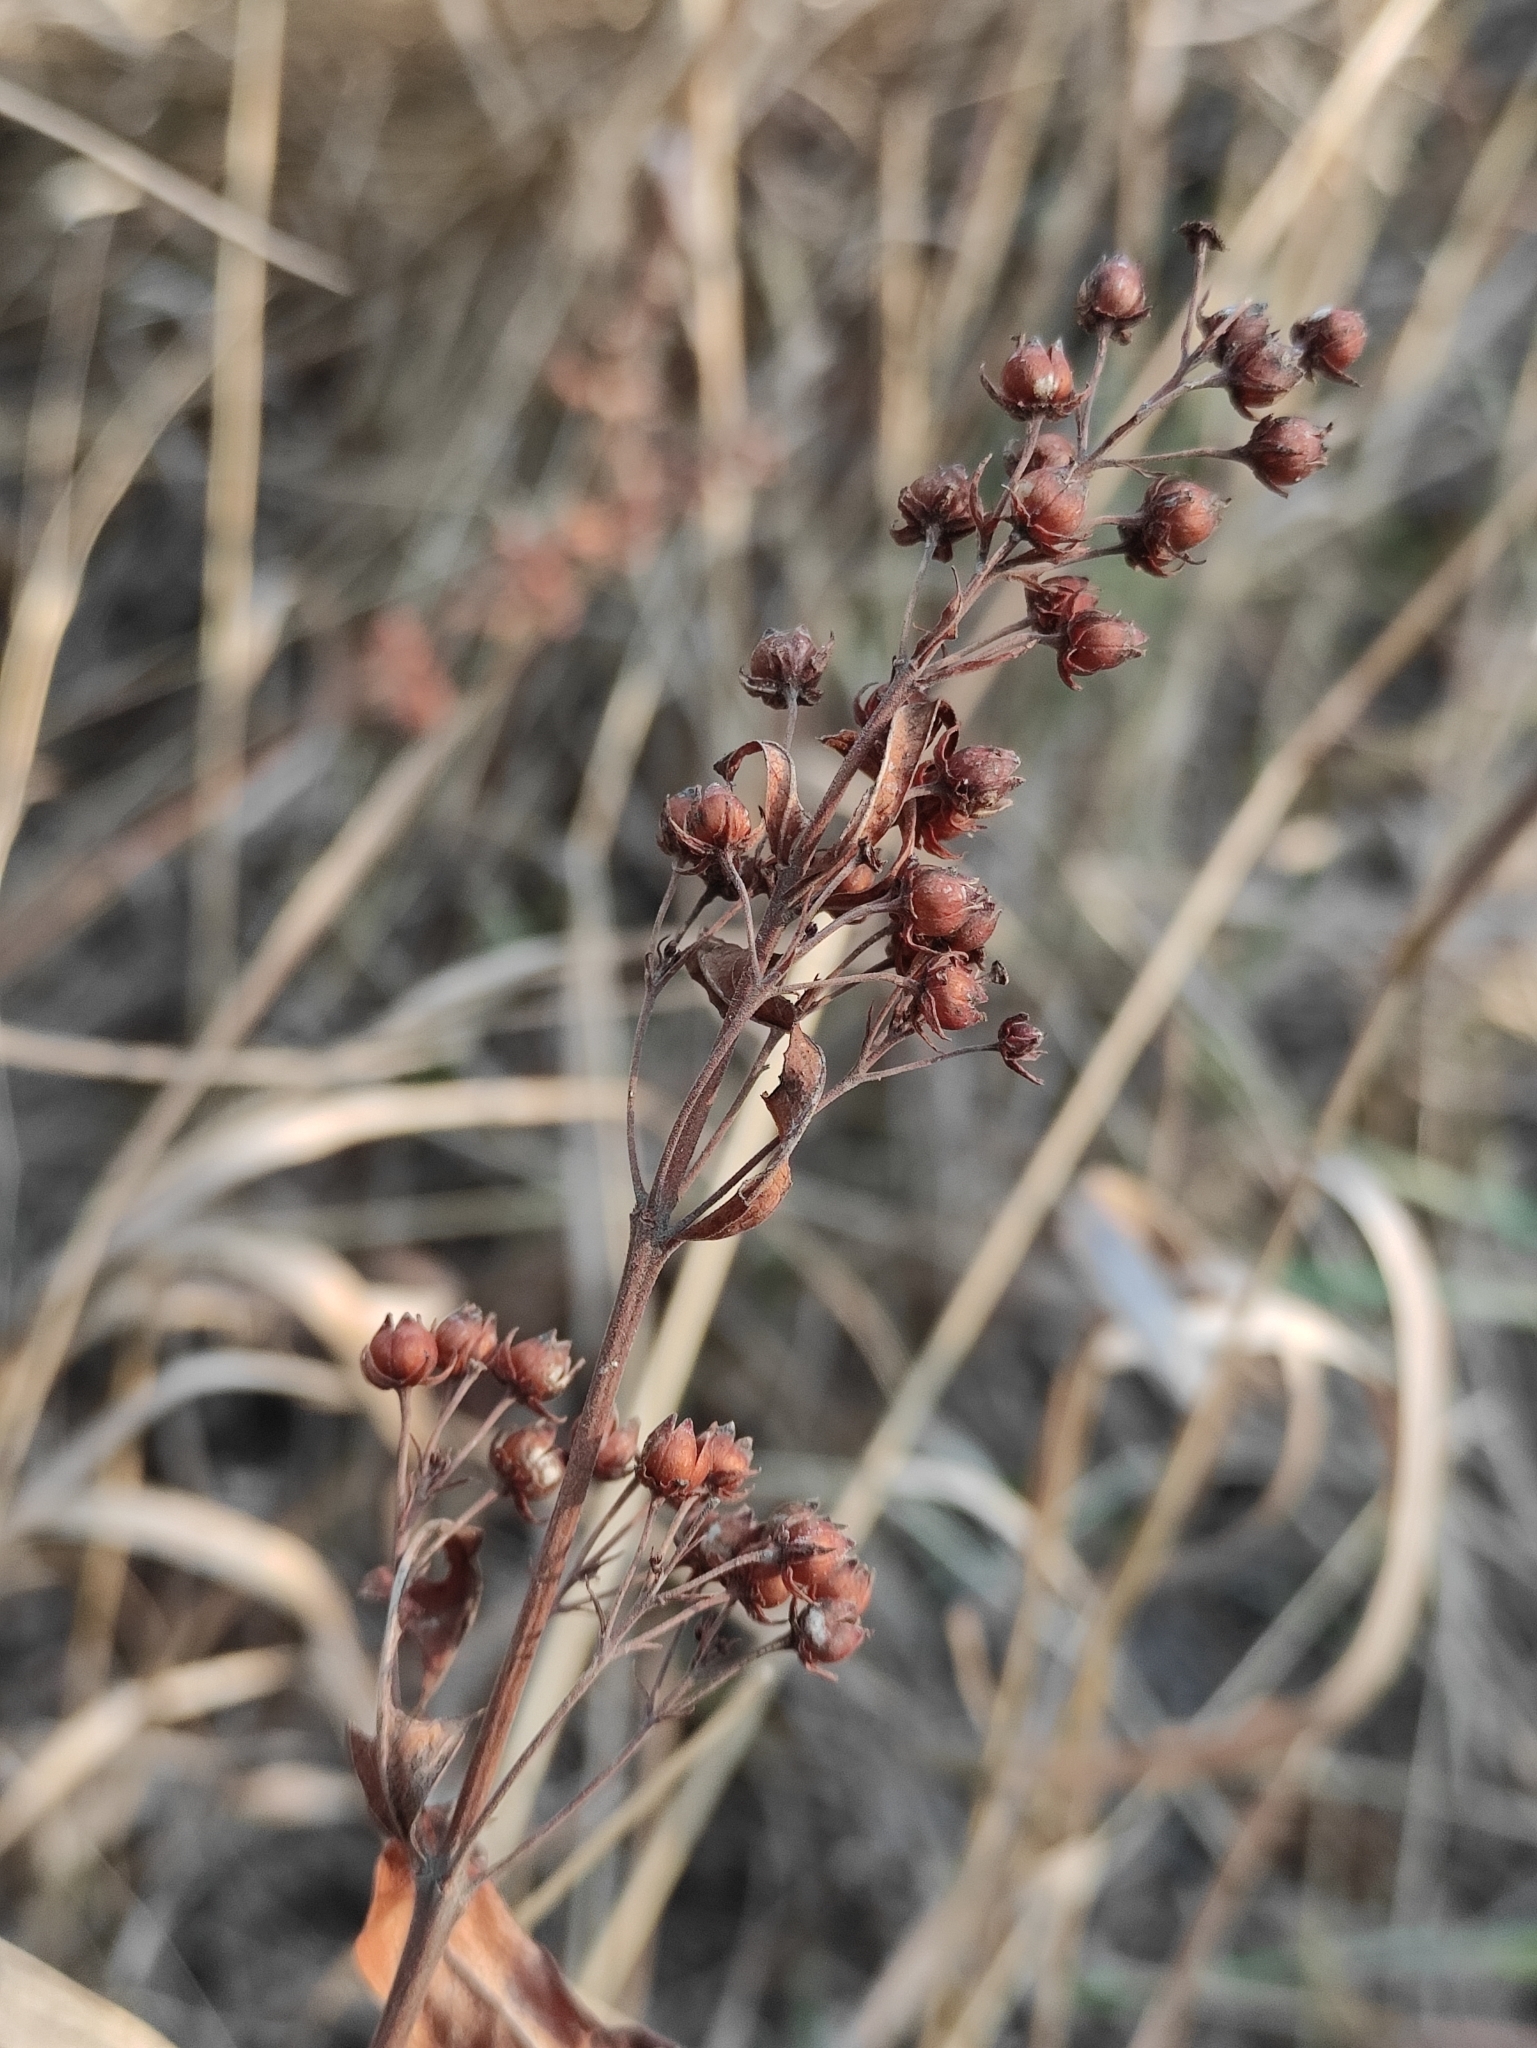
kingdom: Plantae
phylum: Tracheophyta
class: Magnoliopsida
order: Ericales
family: Primulaceae
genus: Lysimachia
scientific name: Lysimachia davurica
